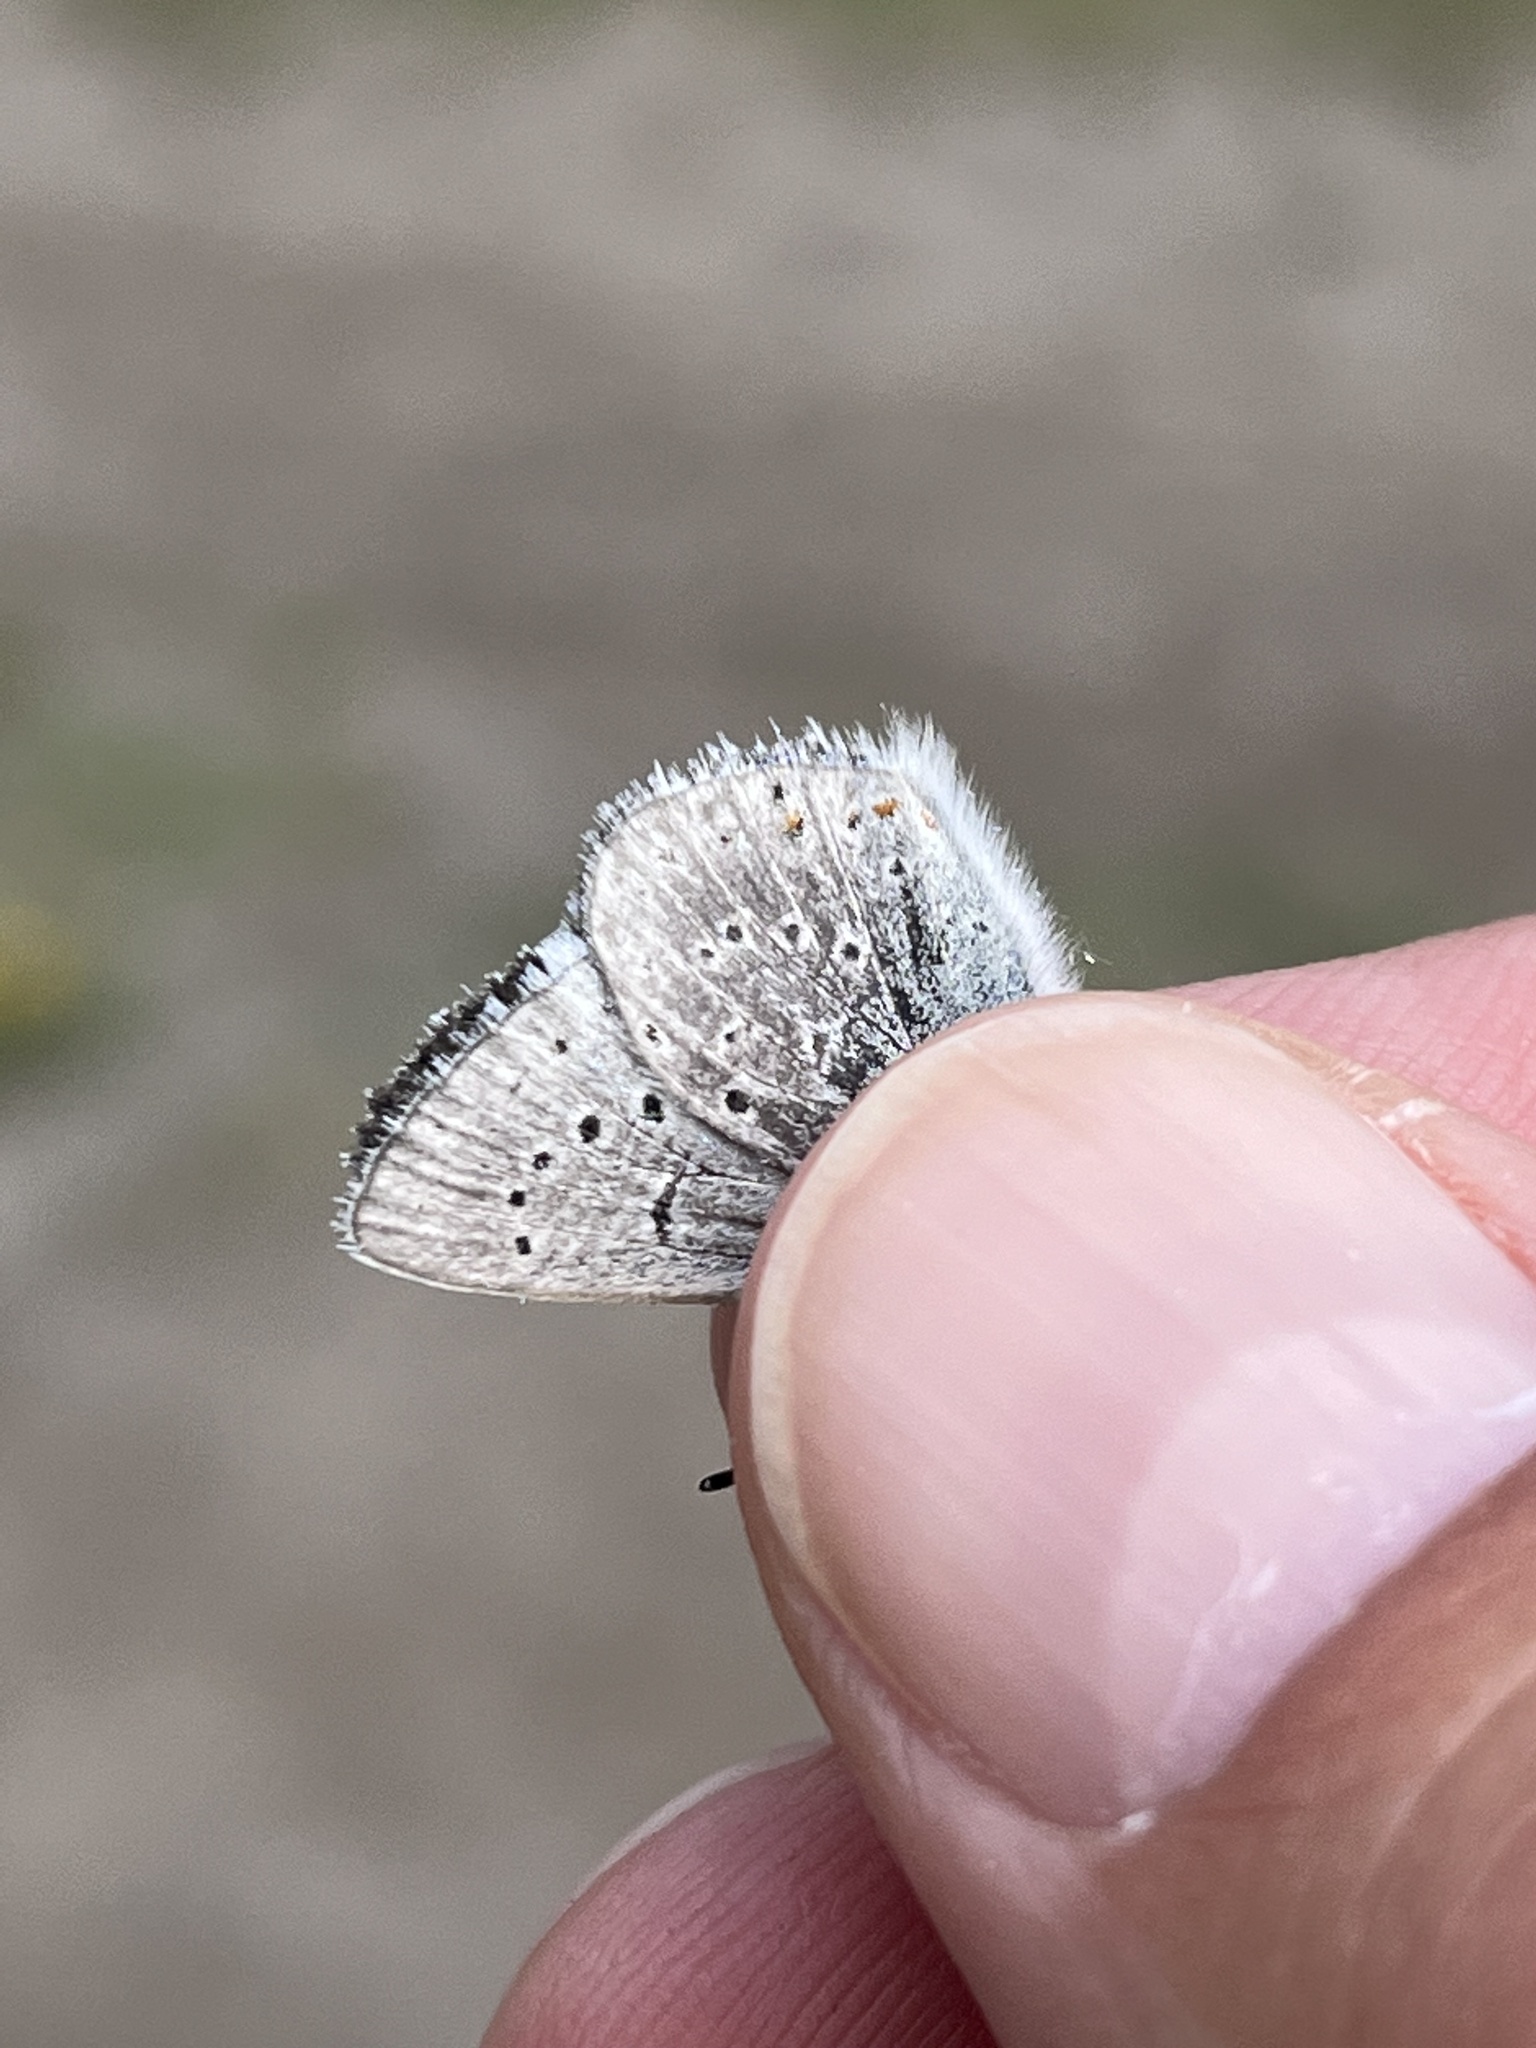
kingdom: Animalia
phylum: Arthropoda
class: Insecta
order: Lepidoptera
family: Lycaenidae
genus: Icaricia
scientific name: Icaricia saepiolus
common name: Greenish blue
